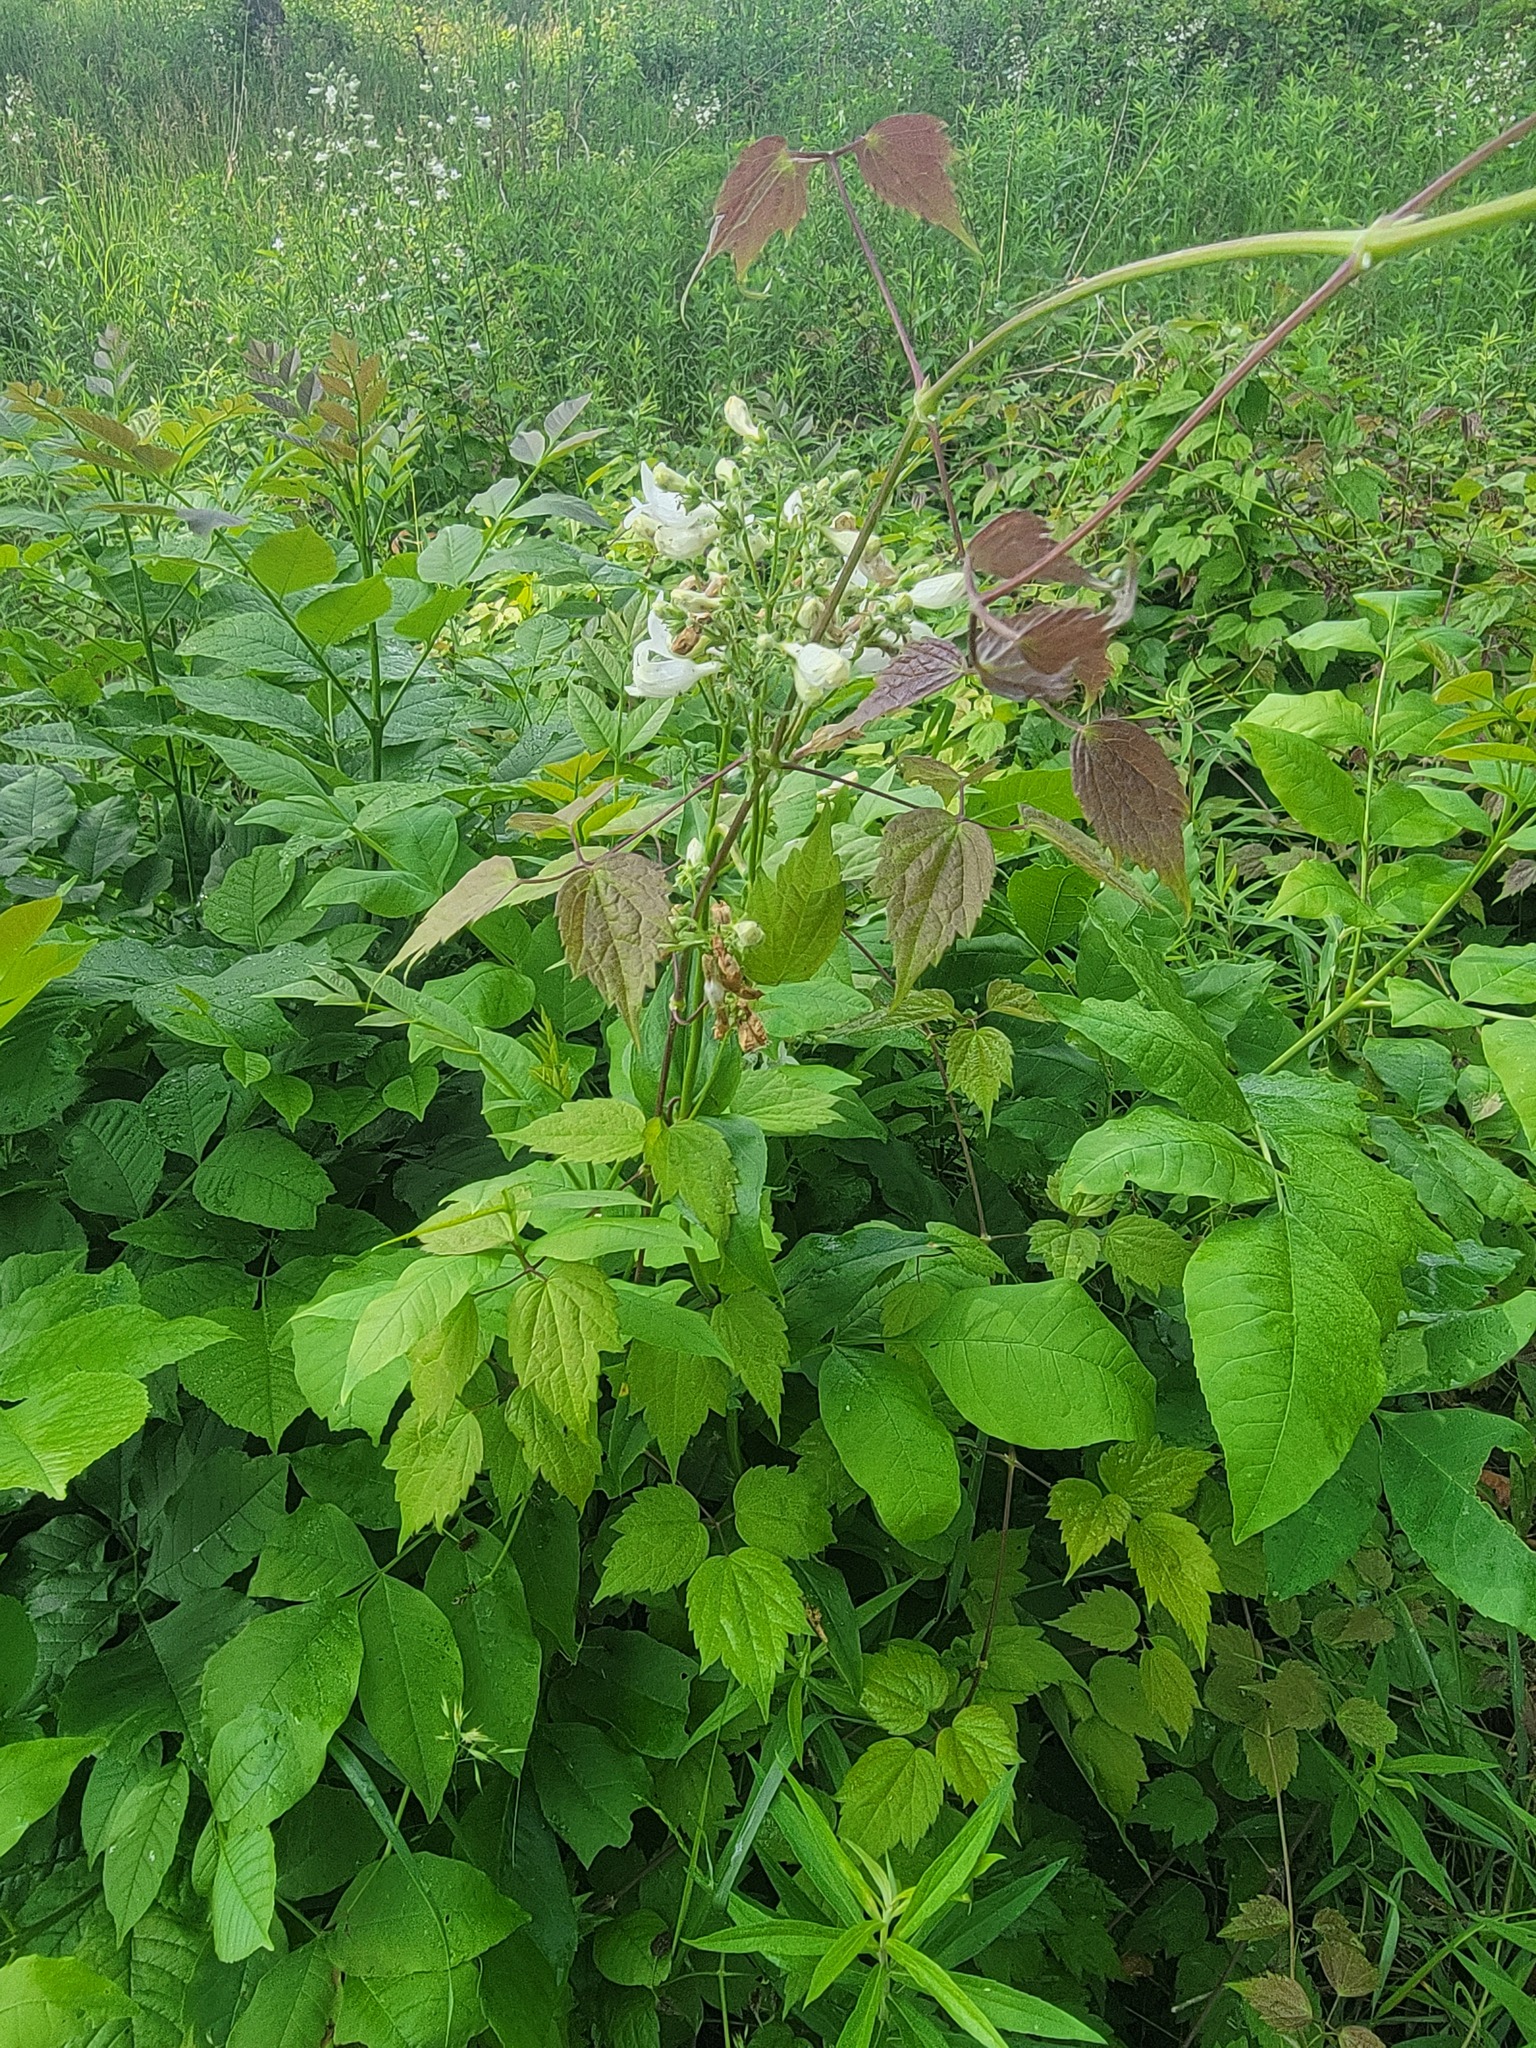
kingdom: Plantae
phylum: Tracheophyta
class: Magnoliopsida
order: Lamiales
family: Plantaginaceae
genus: Penstemon
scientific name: Penstemon digitalis
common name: Foxglove beardtongue
